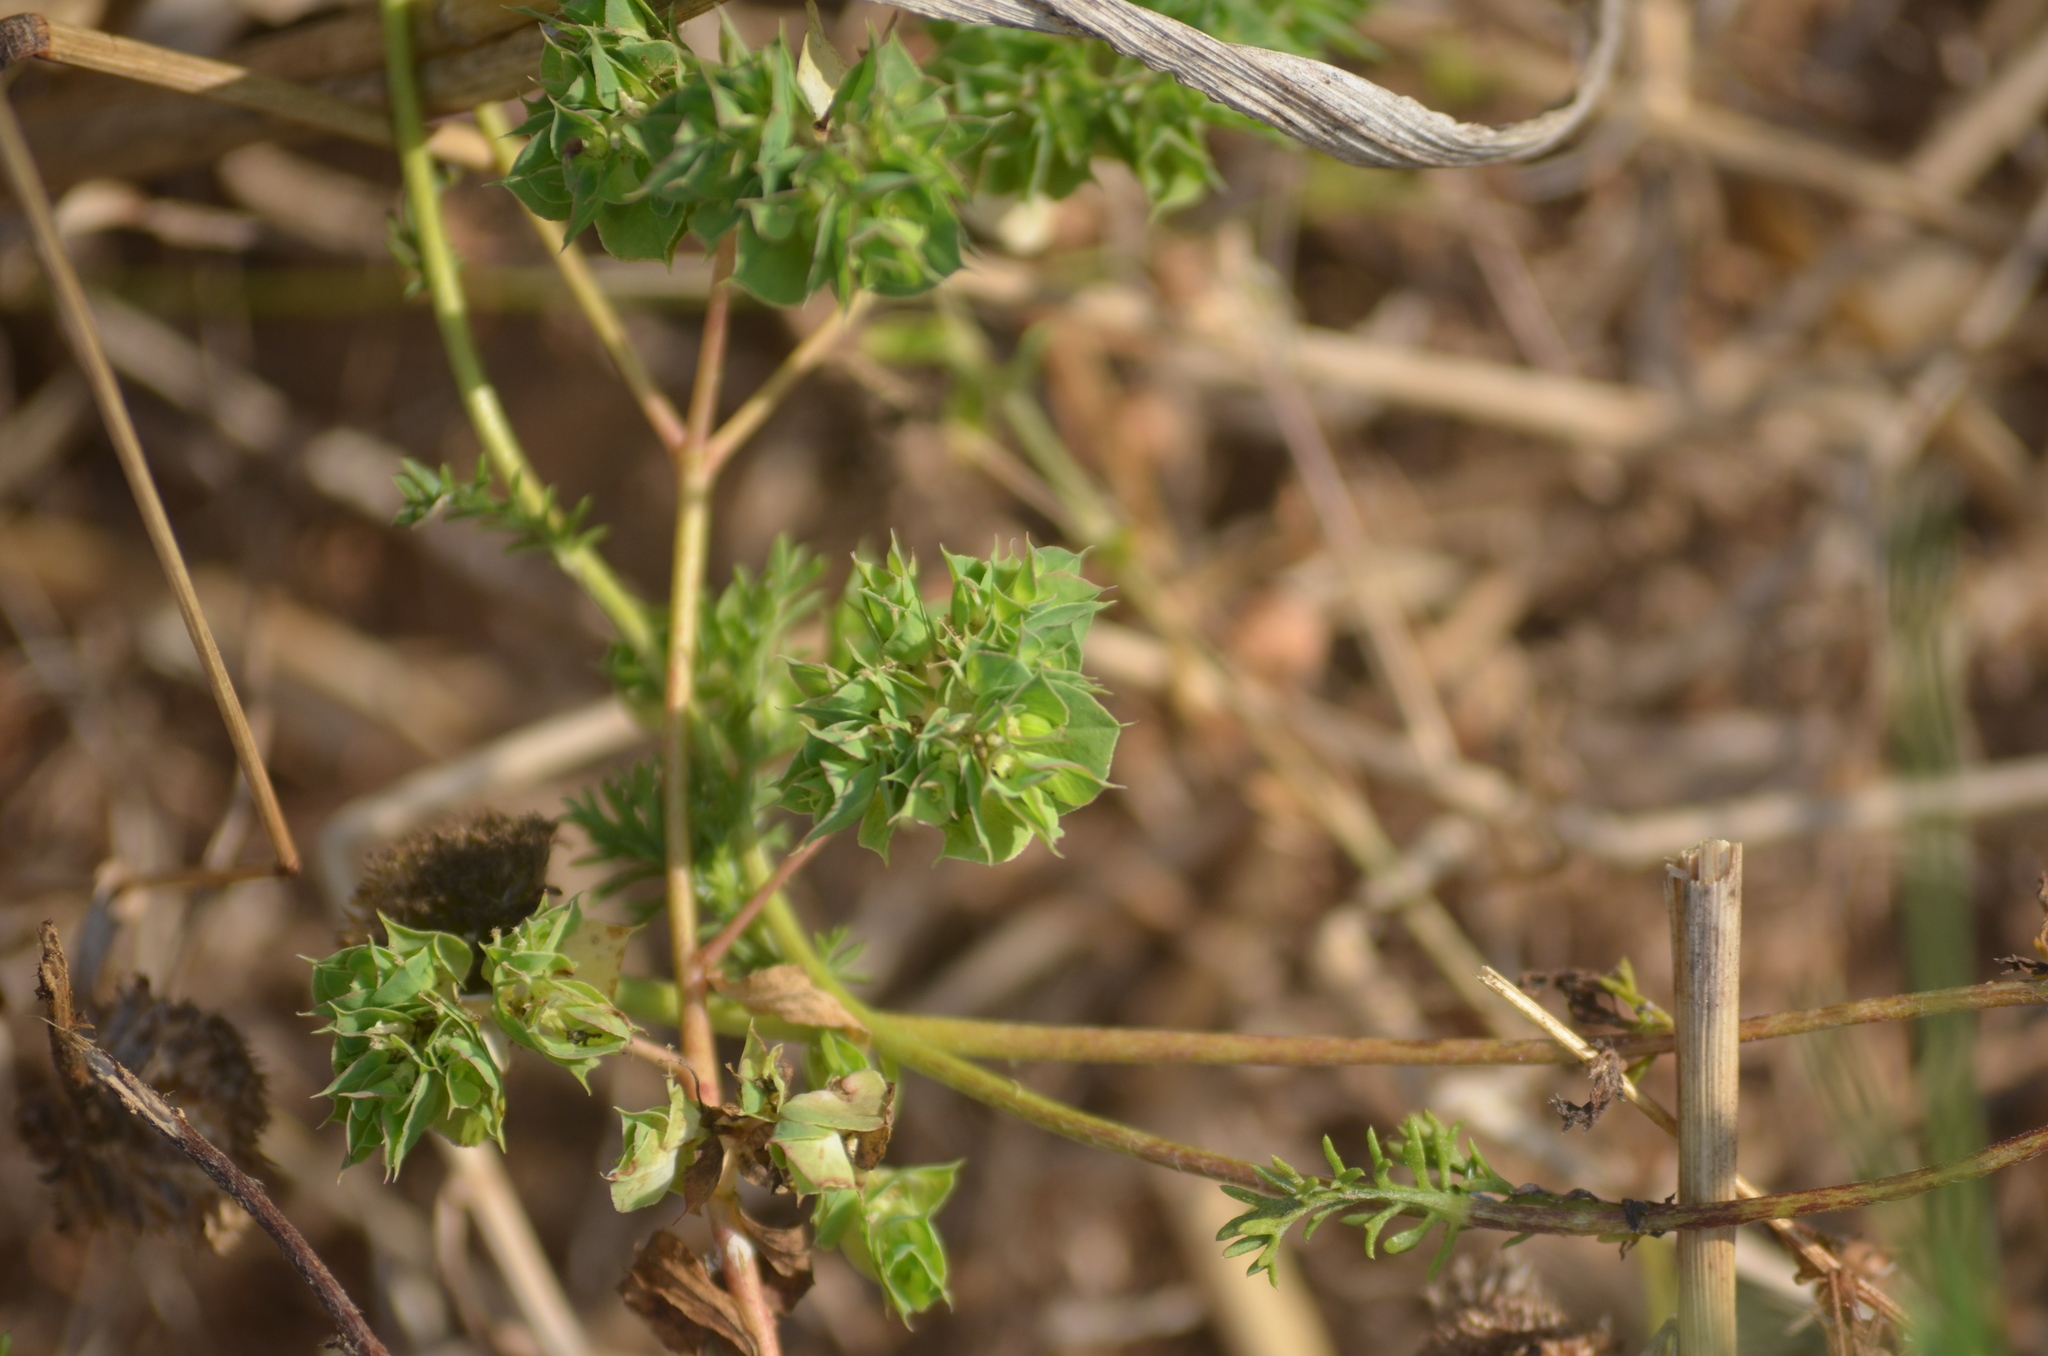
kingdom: Plantae
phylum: Tracheophyta
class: Magnoliopsida
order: Malpighiales
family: Euphorbiaceae
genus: Euphorbia
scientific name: Euphorbia falcata
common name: Sickle spurge
